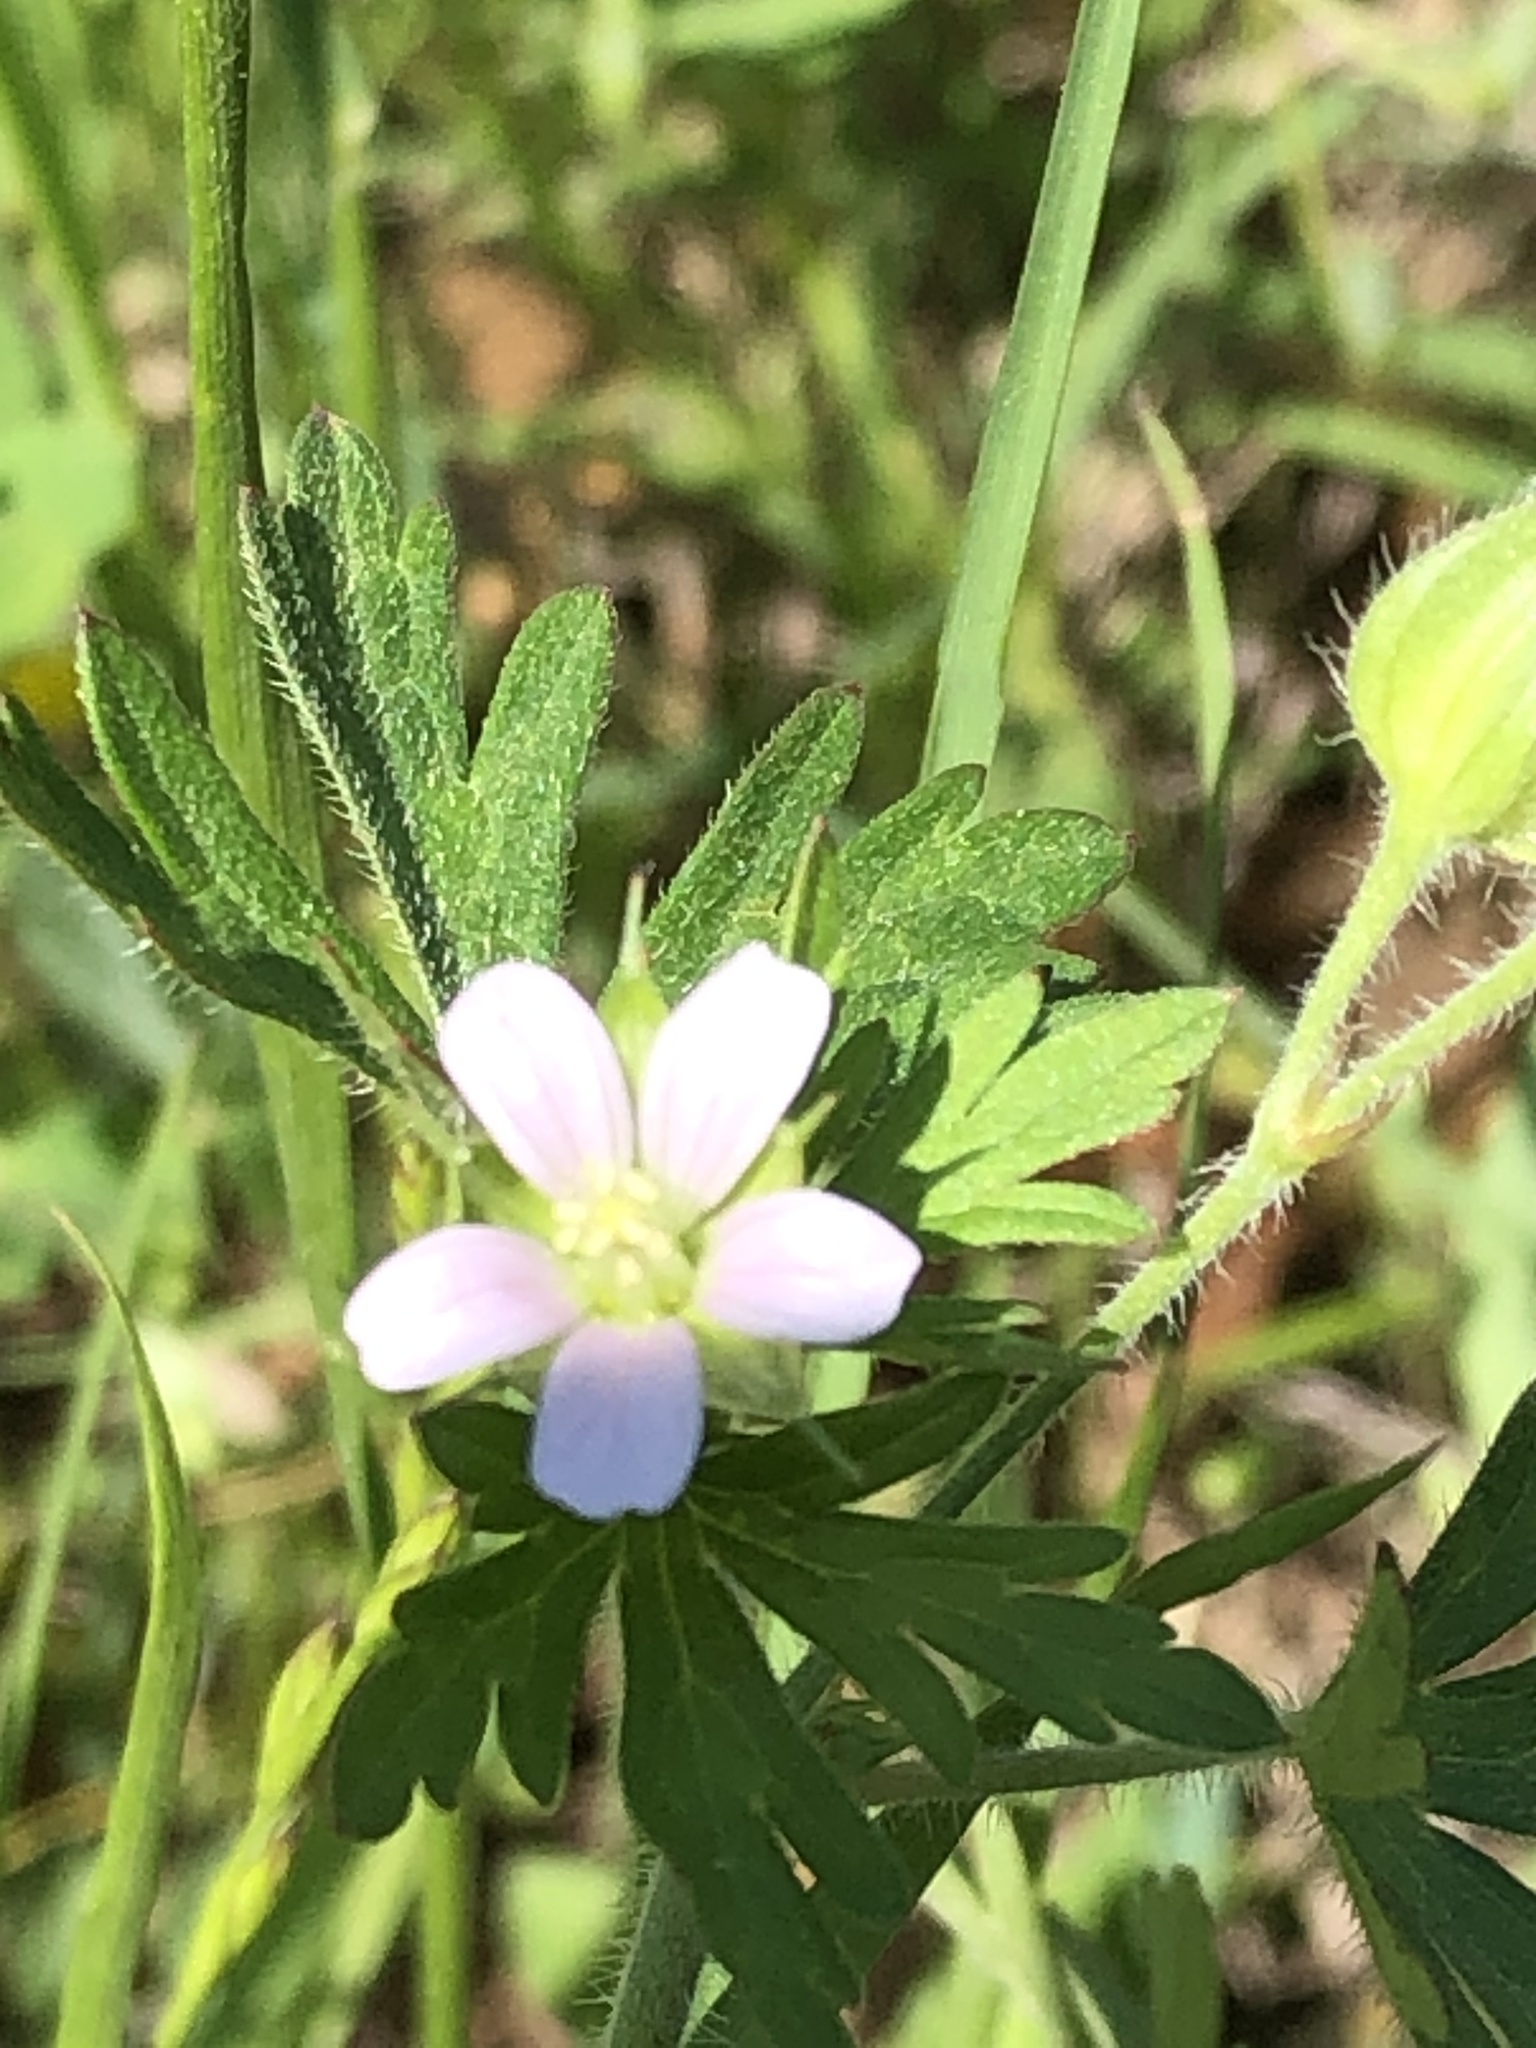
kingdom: Plantae
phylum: Tracheophyta
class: Magnoliopsida
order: Geraniales
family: Geraniaceae
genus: Geranium
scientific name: Geranium carolinianum
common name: Carolina crane's-bill
